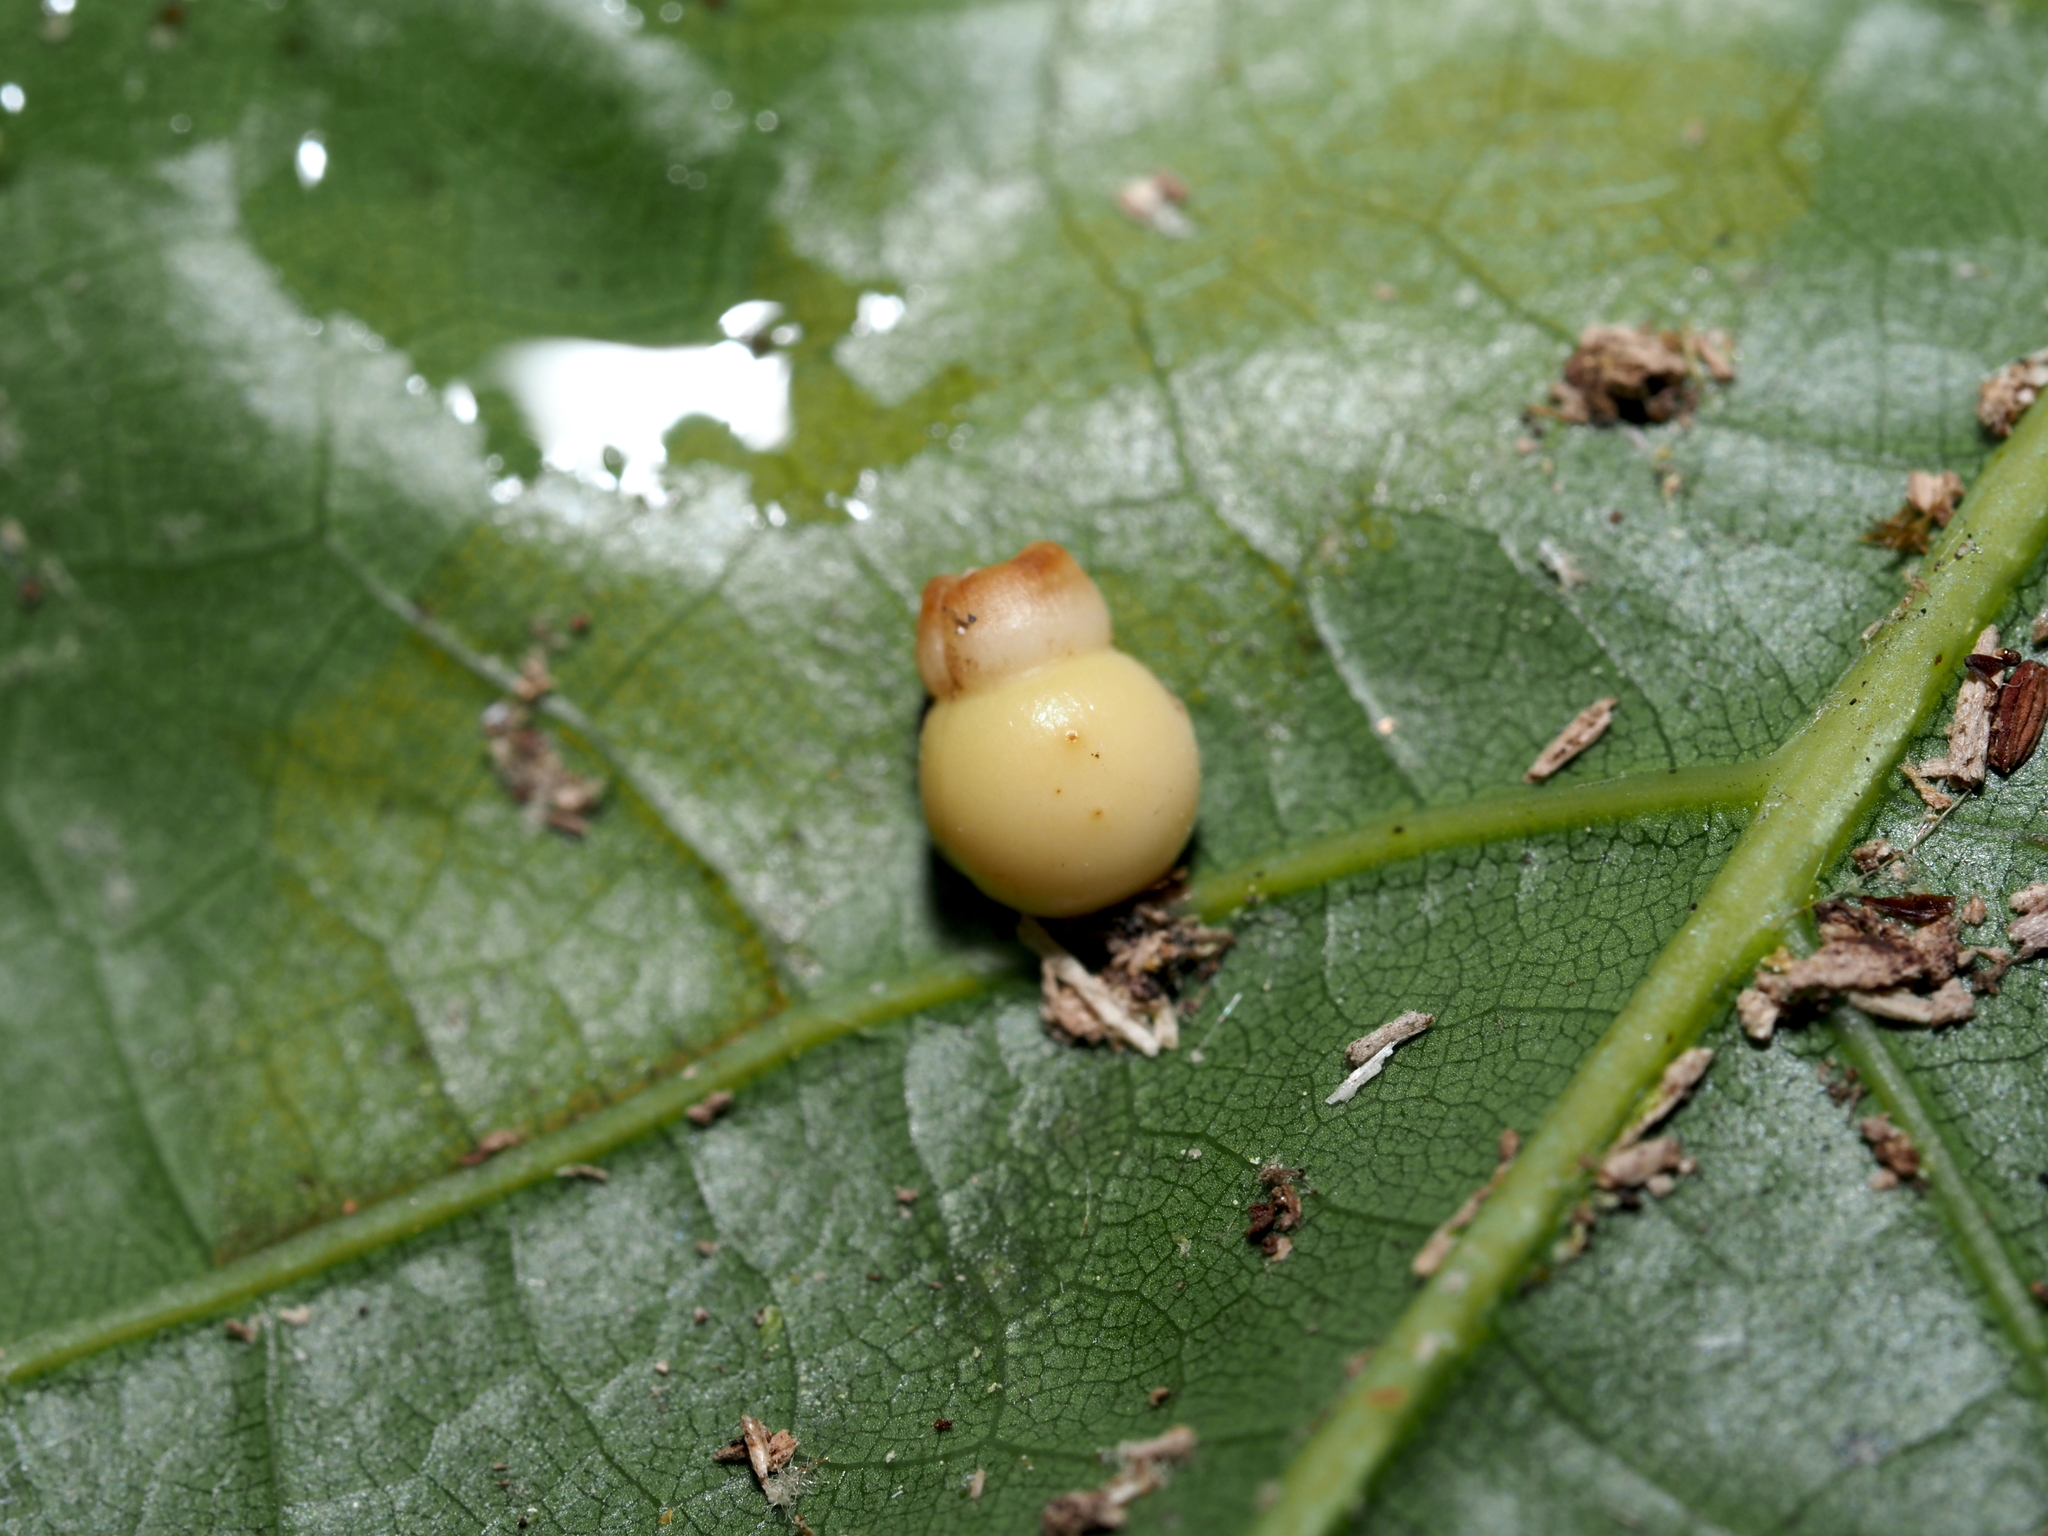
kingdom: Animalia
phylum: Arthropoda
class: Insecta
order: Hymenoptera
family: Cynipidae
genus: Kokkocynips
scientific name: Kokkocynips rileyi
